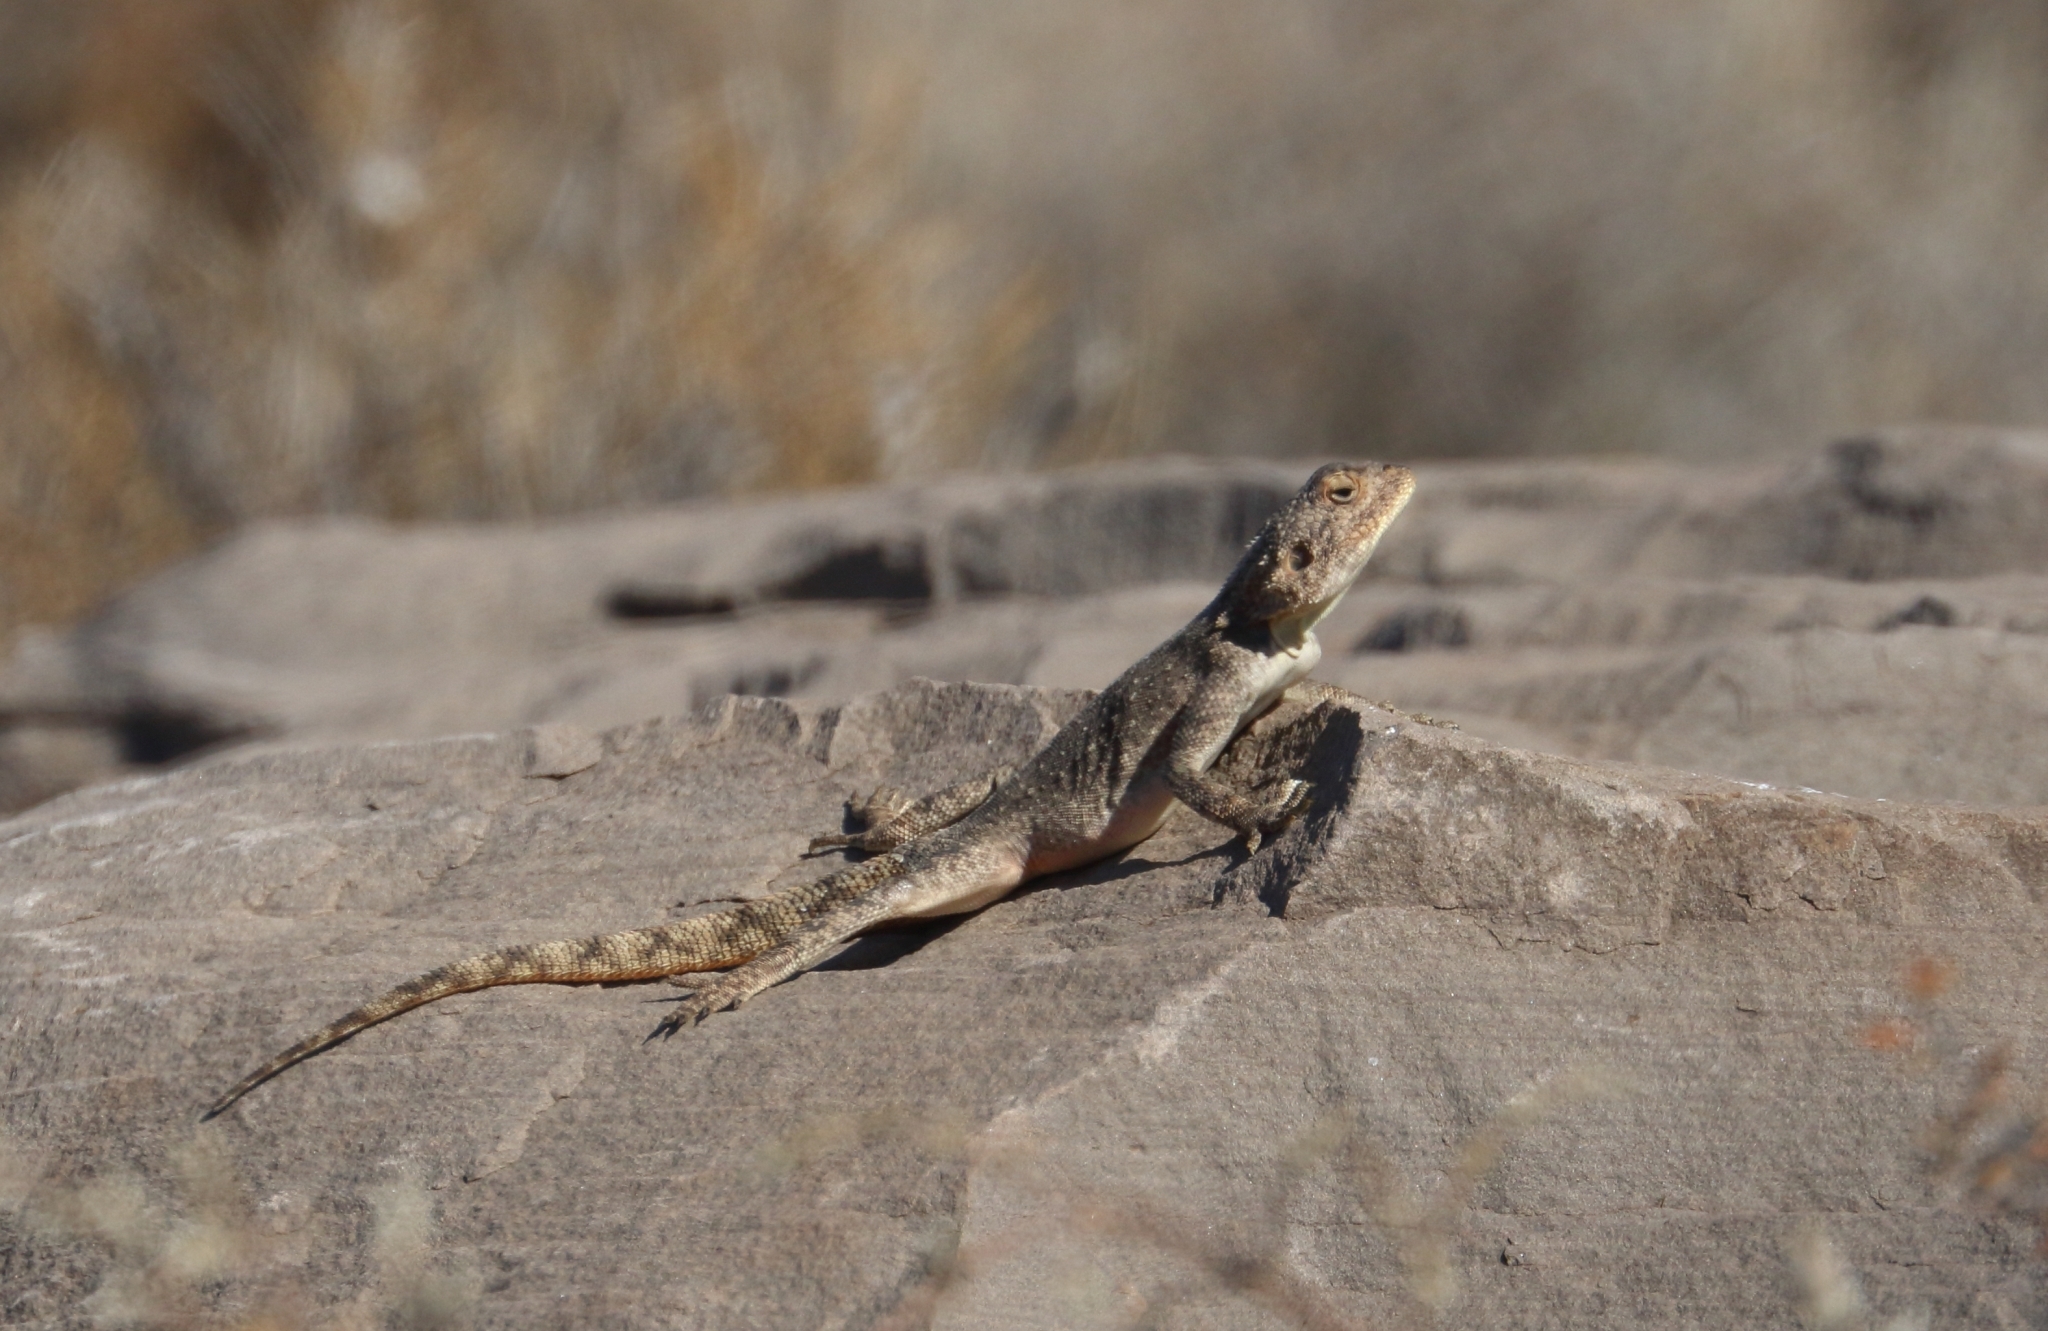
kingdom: Animalia
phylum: Chordata
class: Squamata
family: Agamidae
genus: Agama
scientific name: Agama atra
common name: Southern african rock agama
